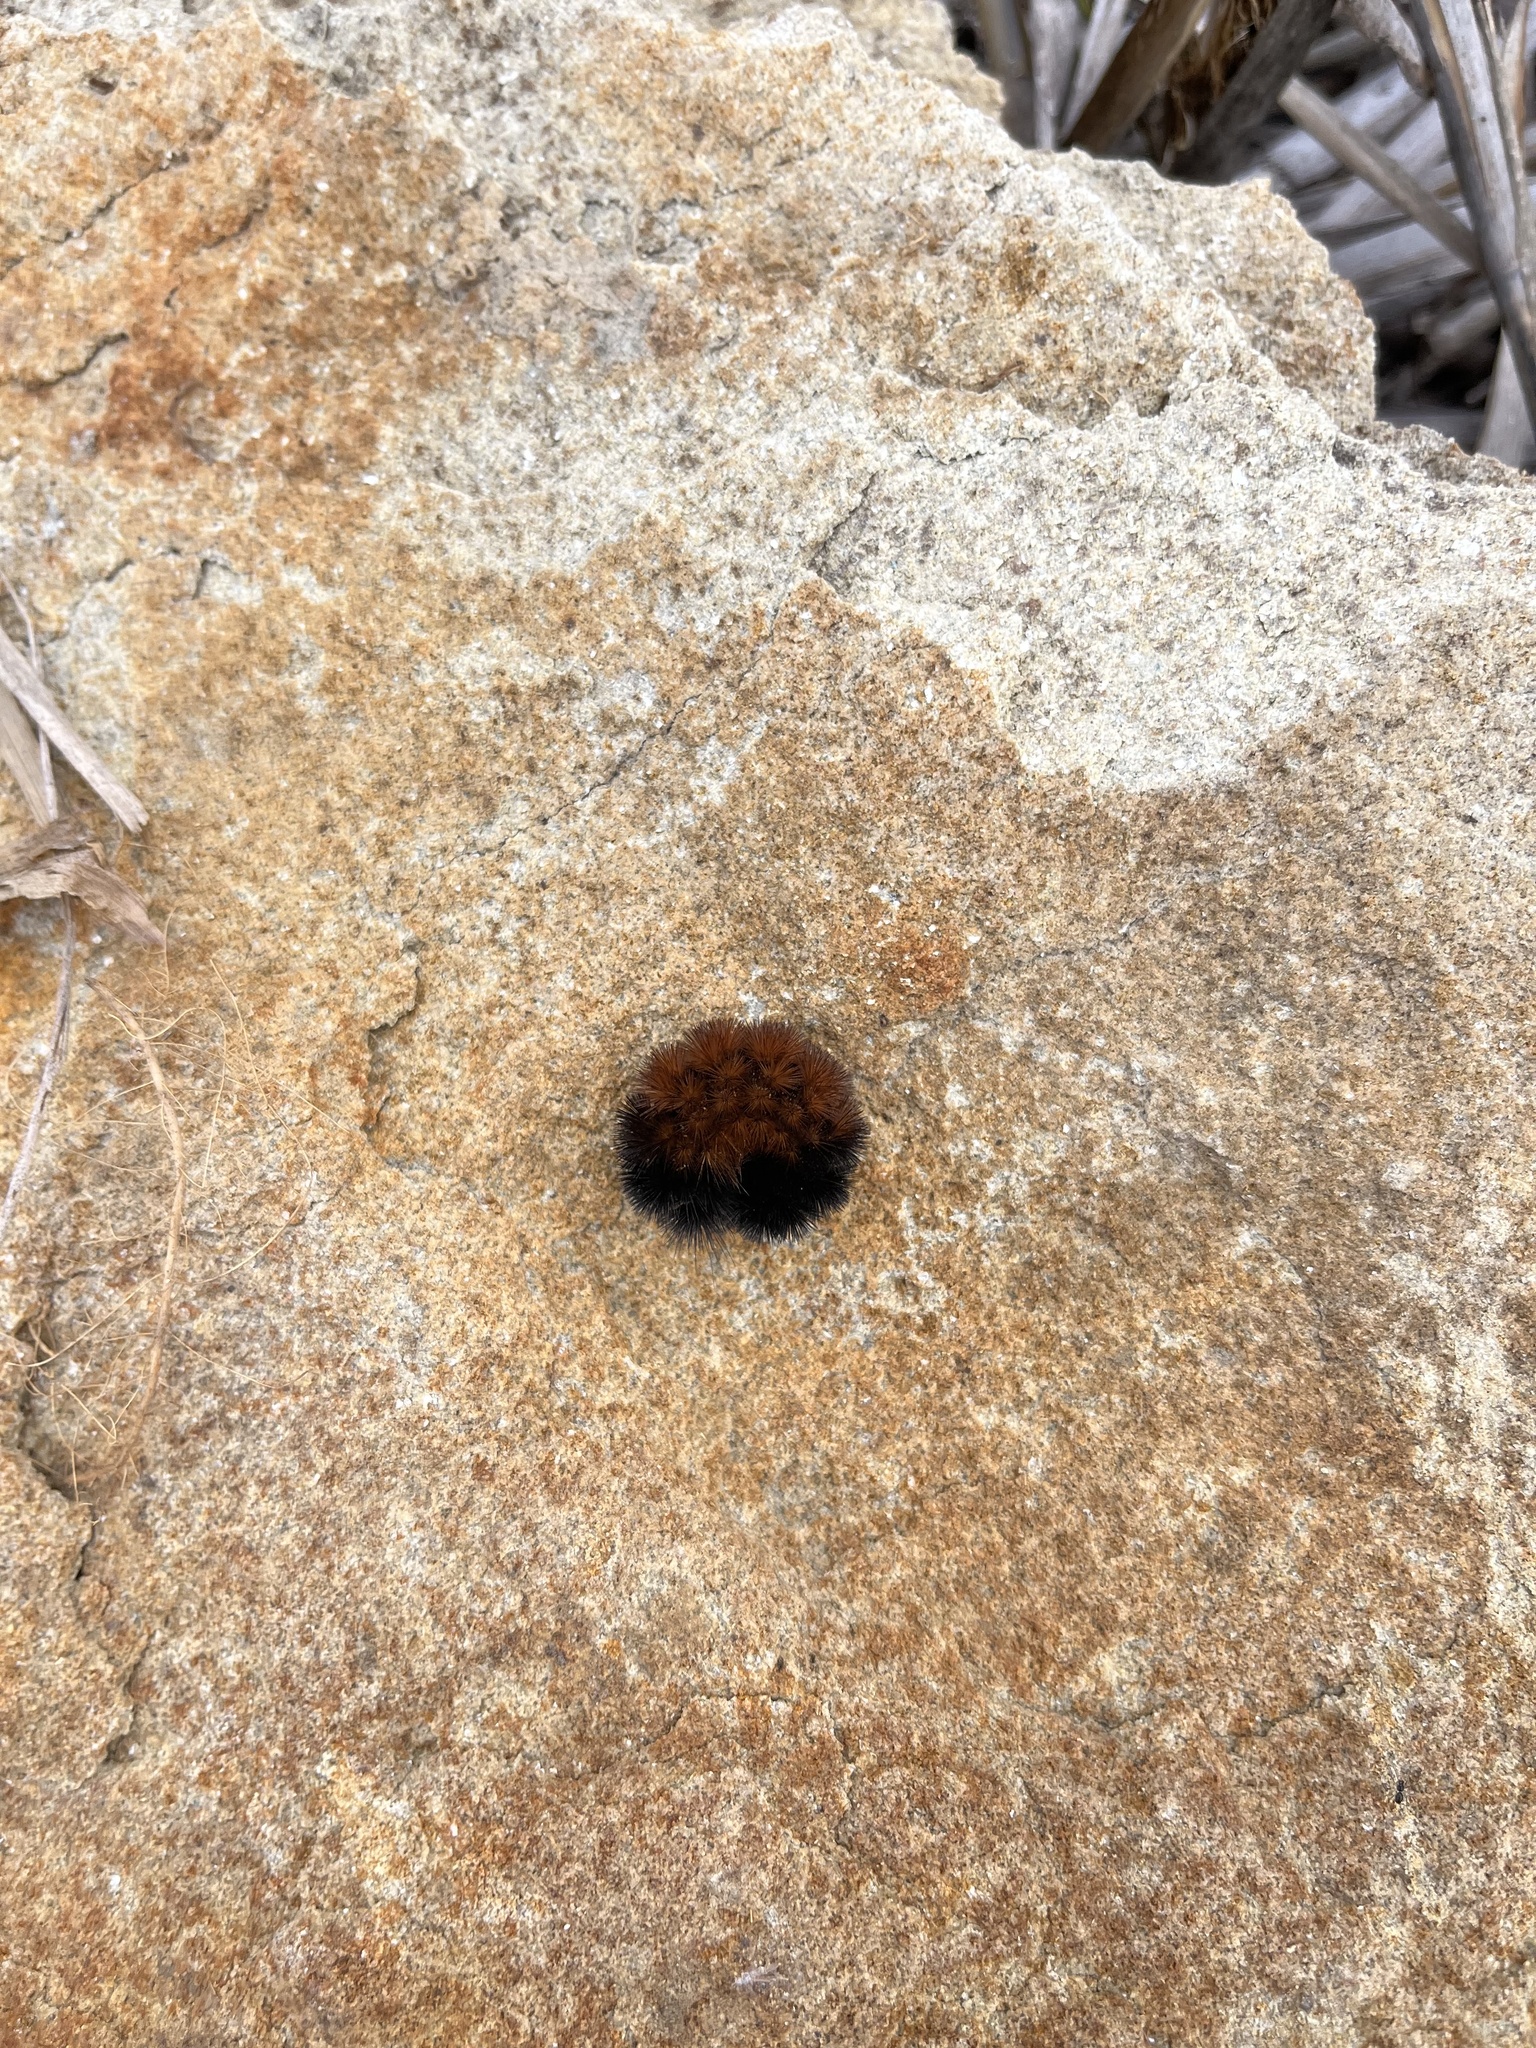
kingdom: Animalia
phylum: Arthropoda
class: Insecta
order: Lepidoptera
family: Erebidae
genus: Pyrrharctia
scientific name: Pyrrharctia isabella
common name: Isabella tiger moth
